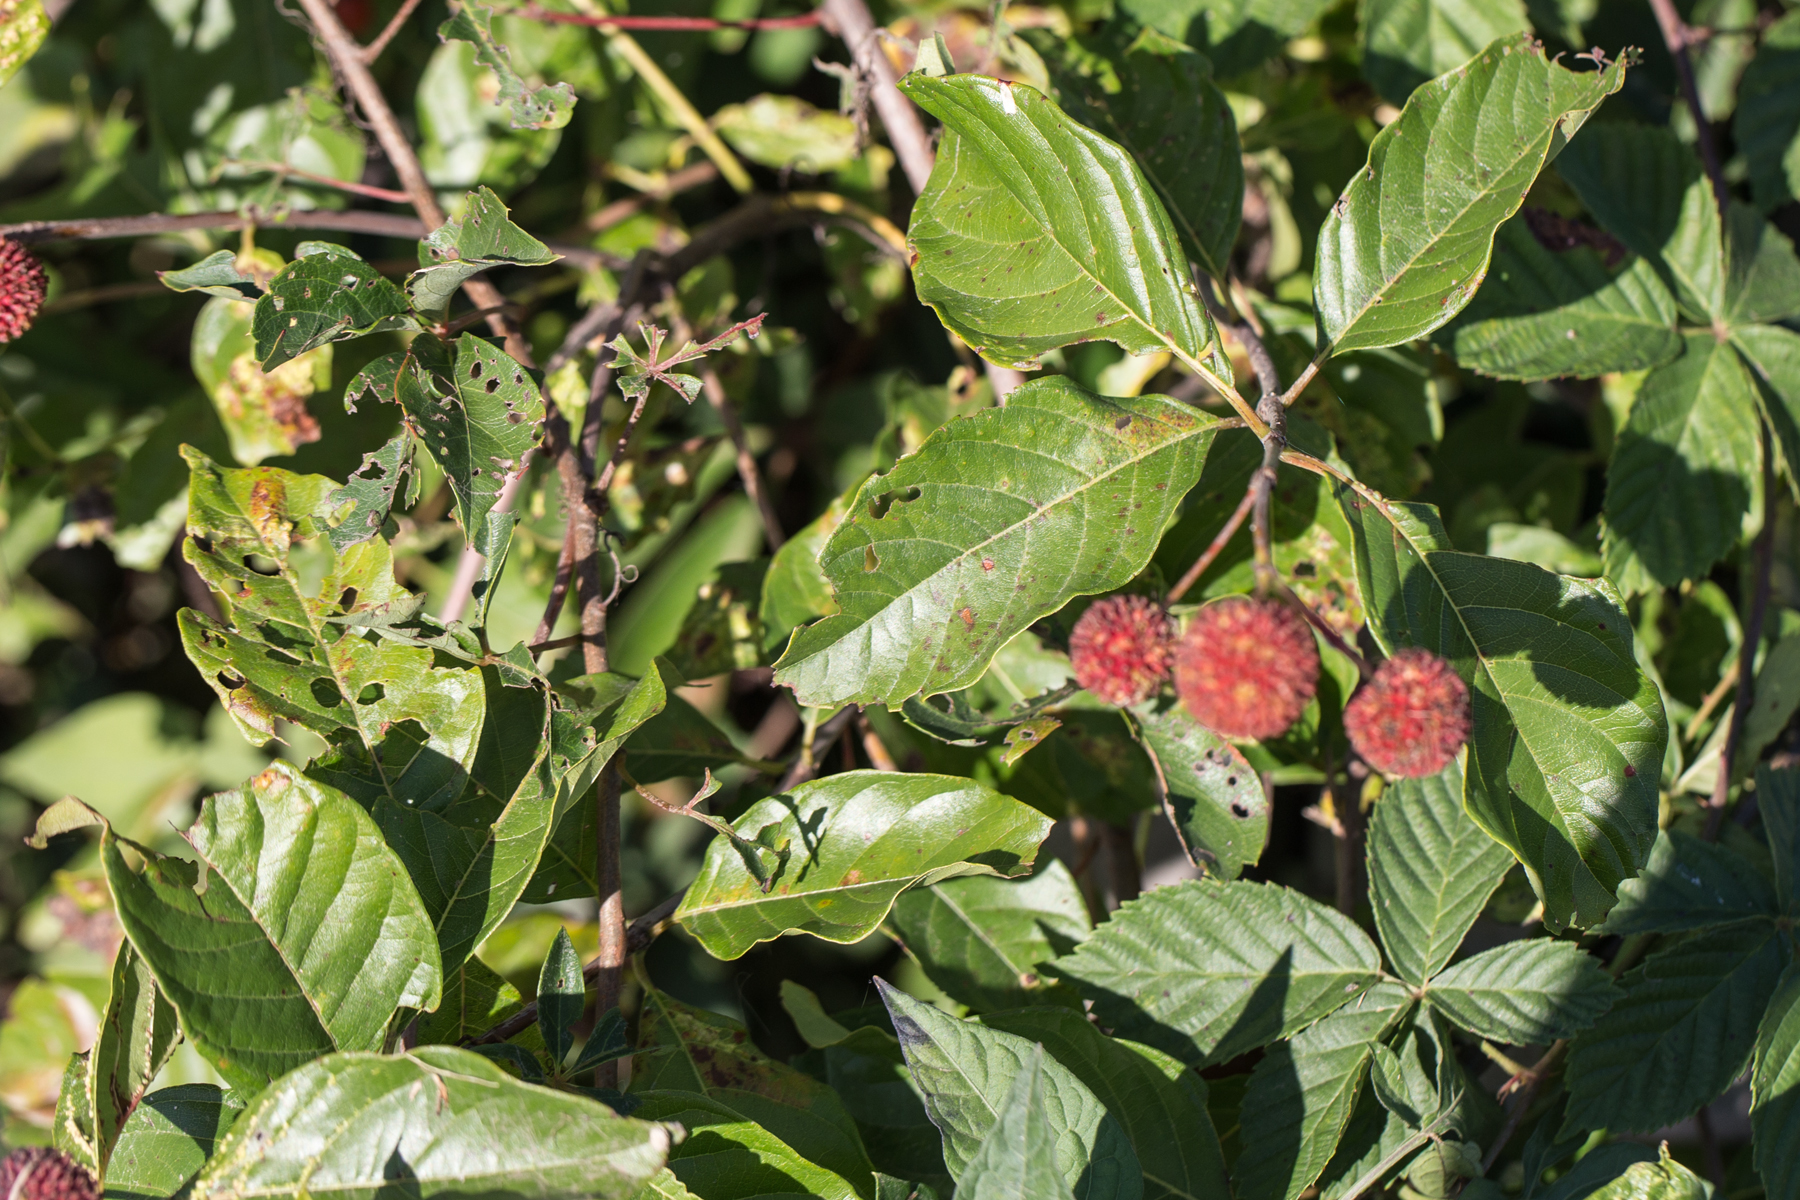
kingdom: Plantae
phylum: Tracheophyta
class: Magnoliopsida
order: Gentianales
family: Rubiaceae
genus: Cephalanthus
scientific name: Cephalanthus occidentalis
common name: Button-willow
